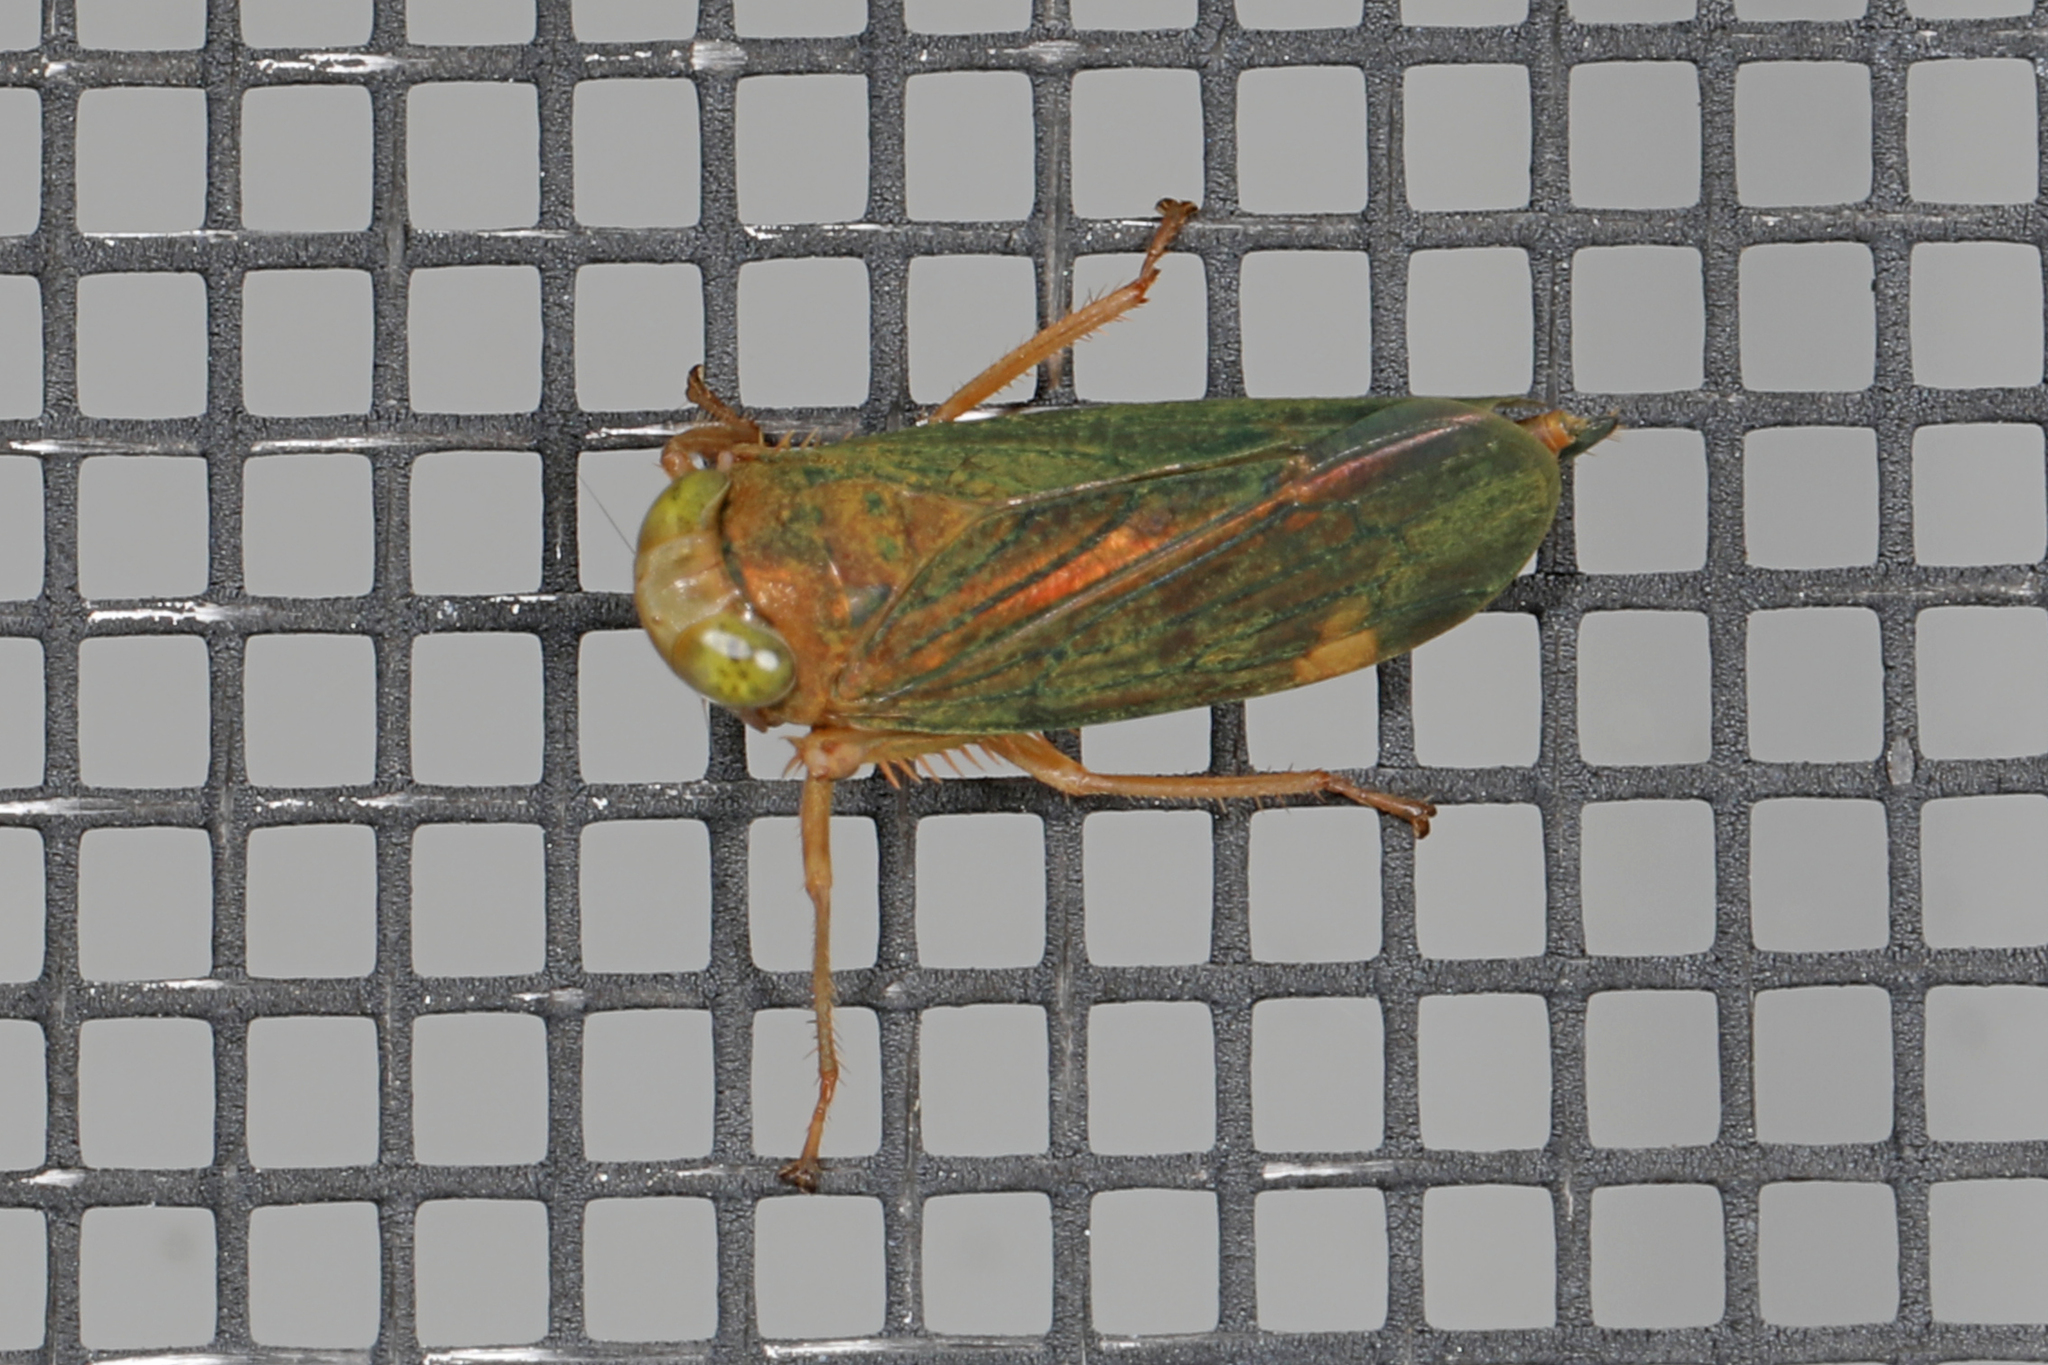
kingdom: Animalia
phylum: Arthropoda
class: Insecta
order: Hemiptera
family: Cicadellidae
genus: Jikradia
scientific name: Jikradia olitoria
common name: Coppery leafhopper
